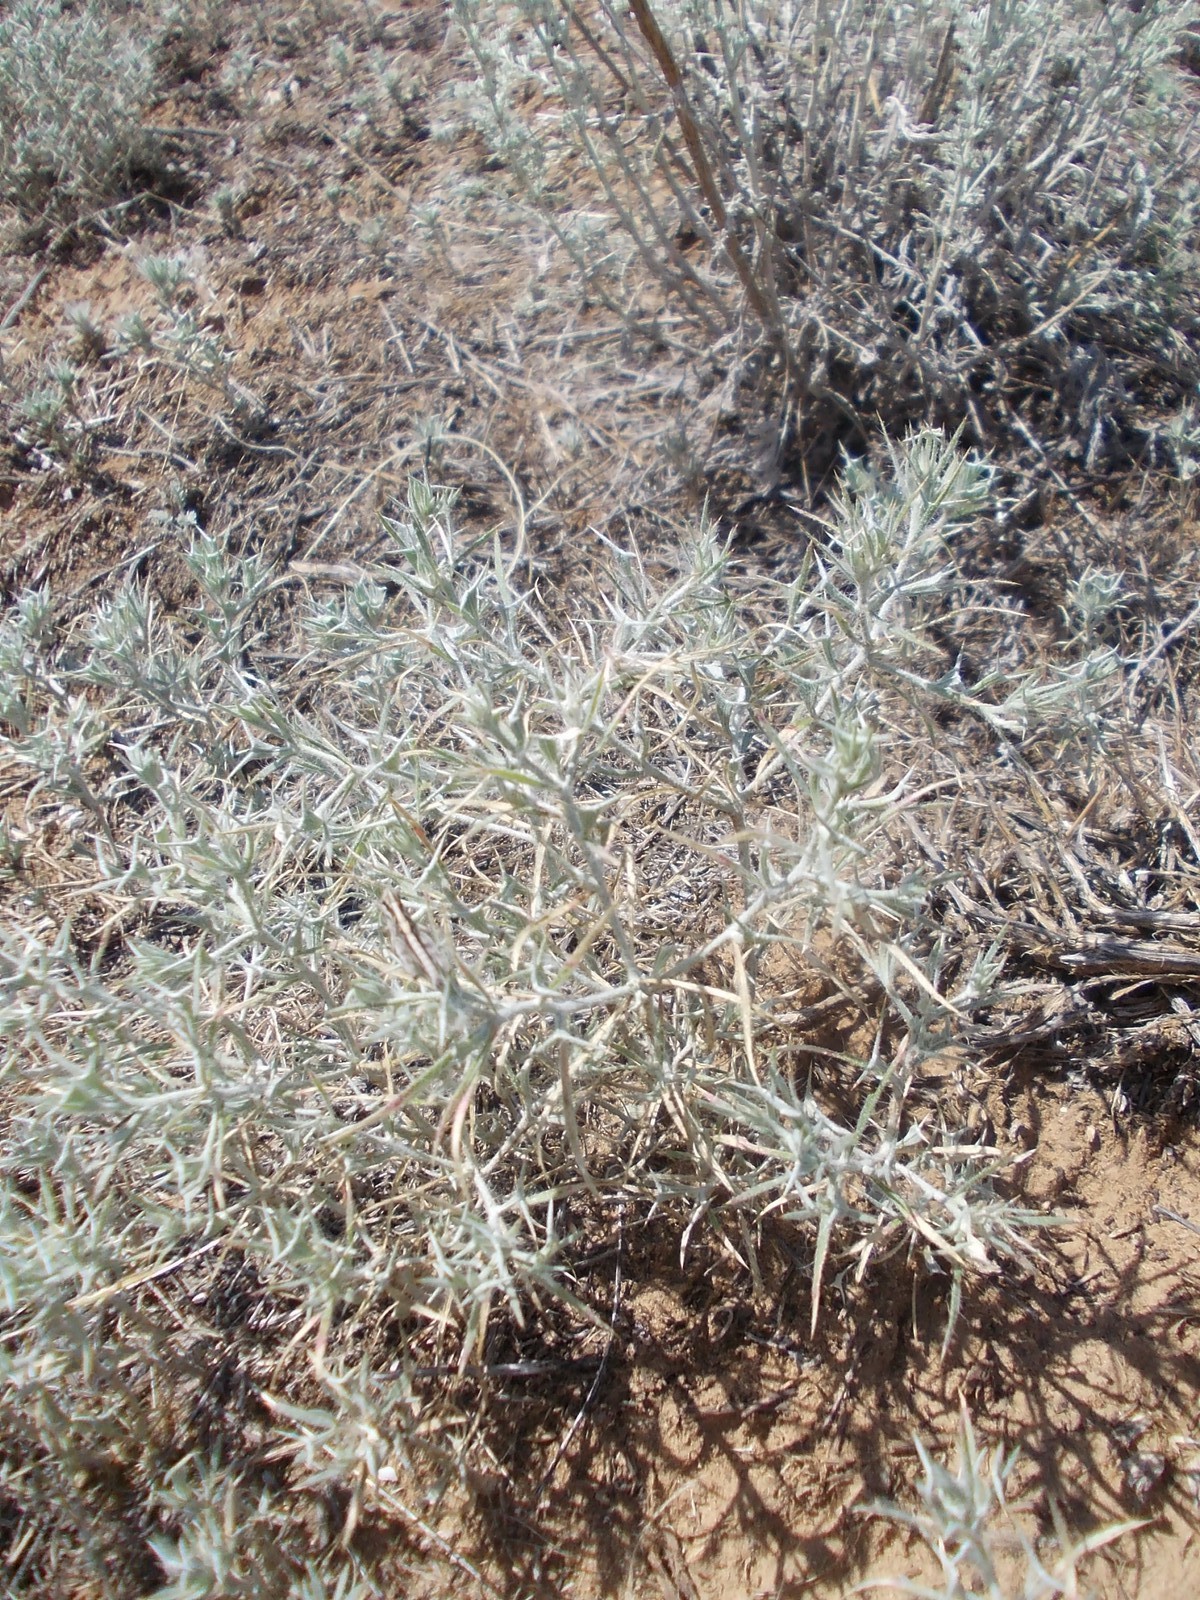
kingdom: Plantae
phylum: Tracheophyta
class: Magnoliopsida
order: Caryophyllales
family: Amaranthaceae
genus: Ceratocarpus
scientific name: Ceratocarpus arenarius
